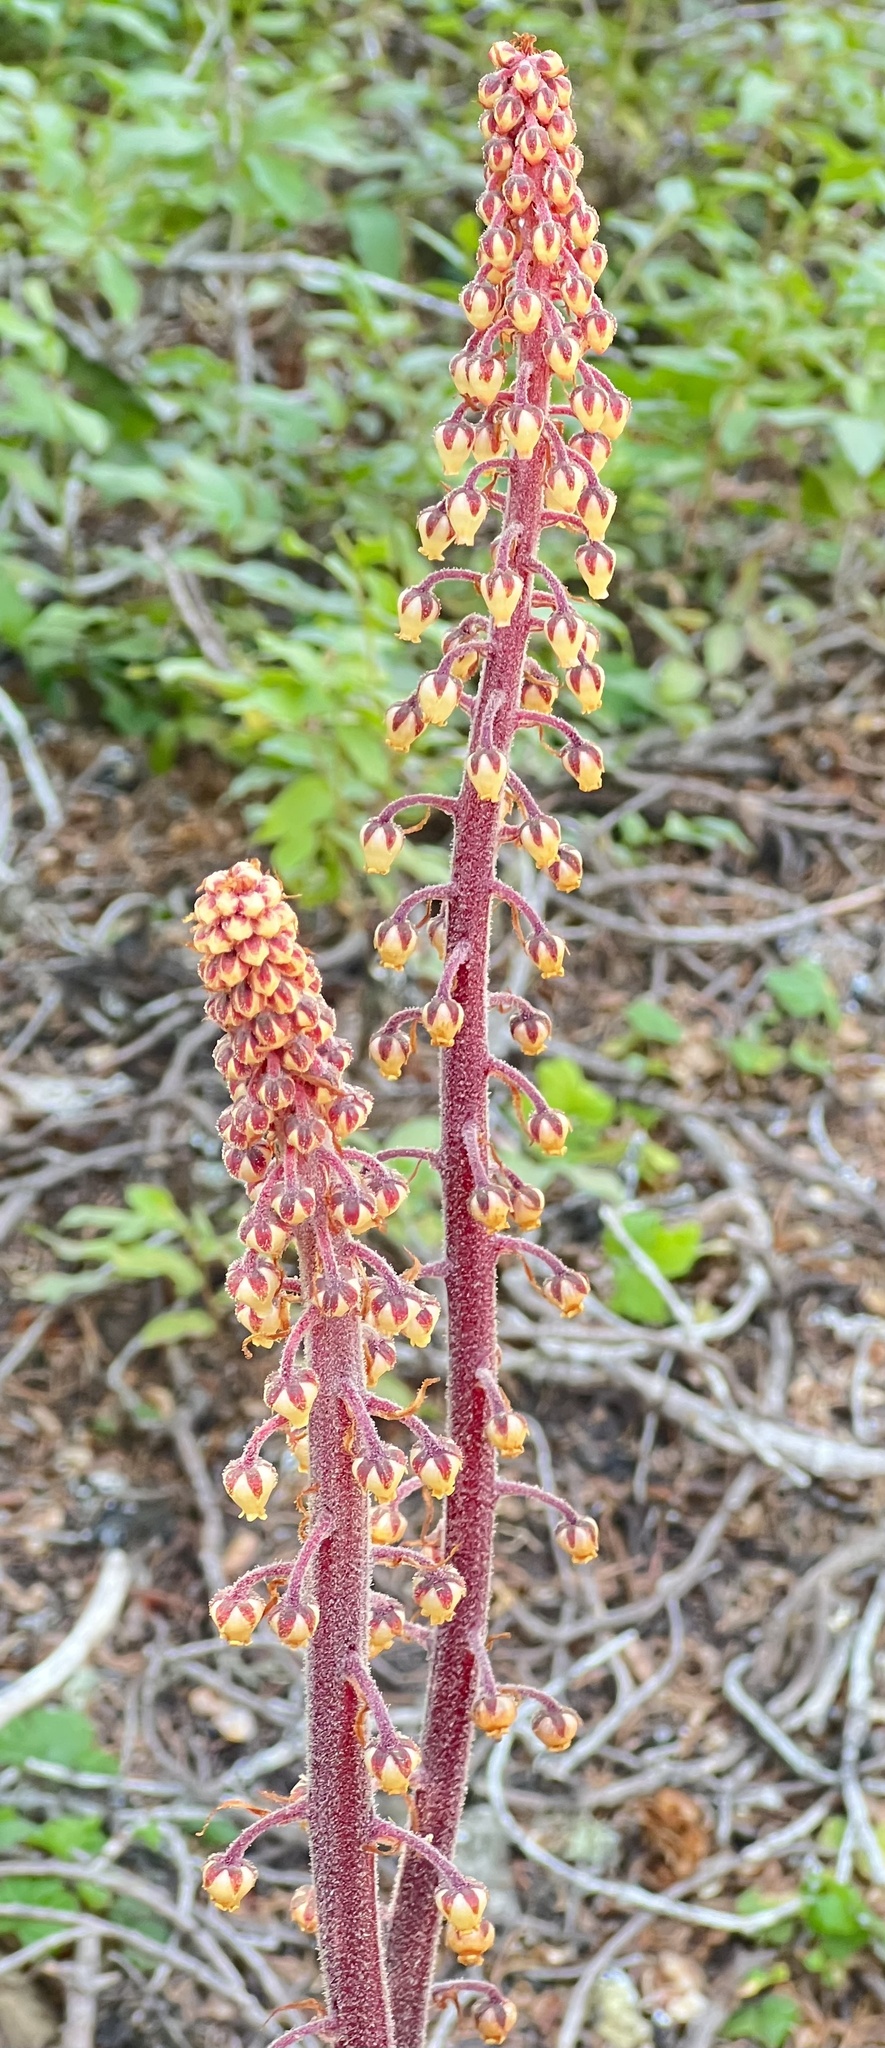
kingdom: Plantae
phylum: Tracheophyta
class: Magnoliopsida
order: Ericales
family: Ericaceae
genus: Pterospora
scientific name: Pterospora andromedea
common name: Giant bird's-nest
